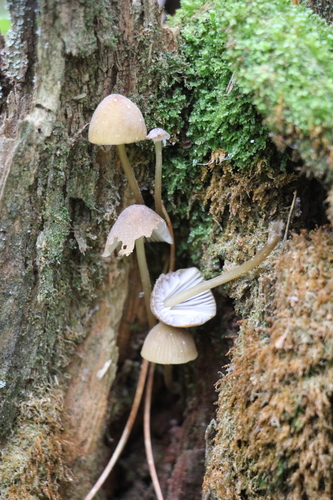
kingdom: Fungi
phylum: Basidiomycota
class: Agaricomycetes
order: Agaricales
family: Mycenaceae
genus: Mycena
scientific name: Mycena viridimarginata
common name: Olive edge bonnet
